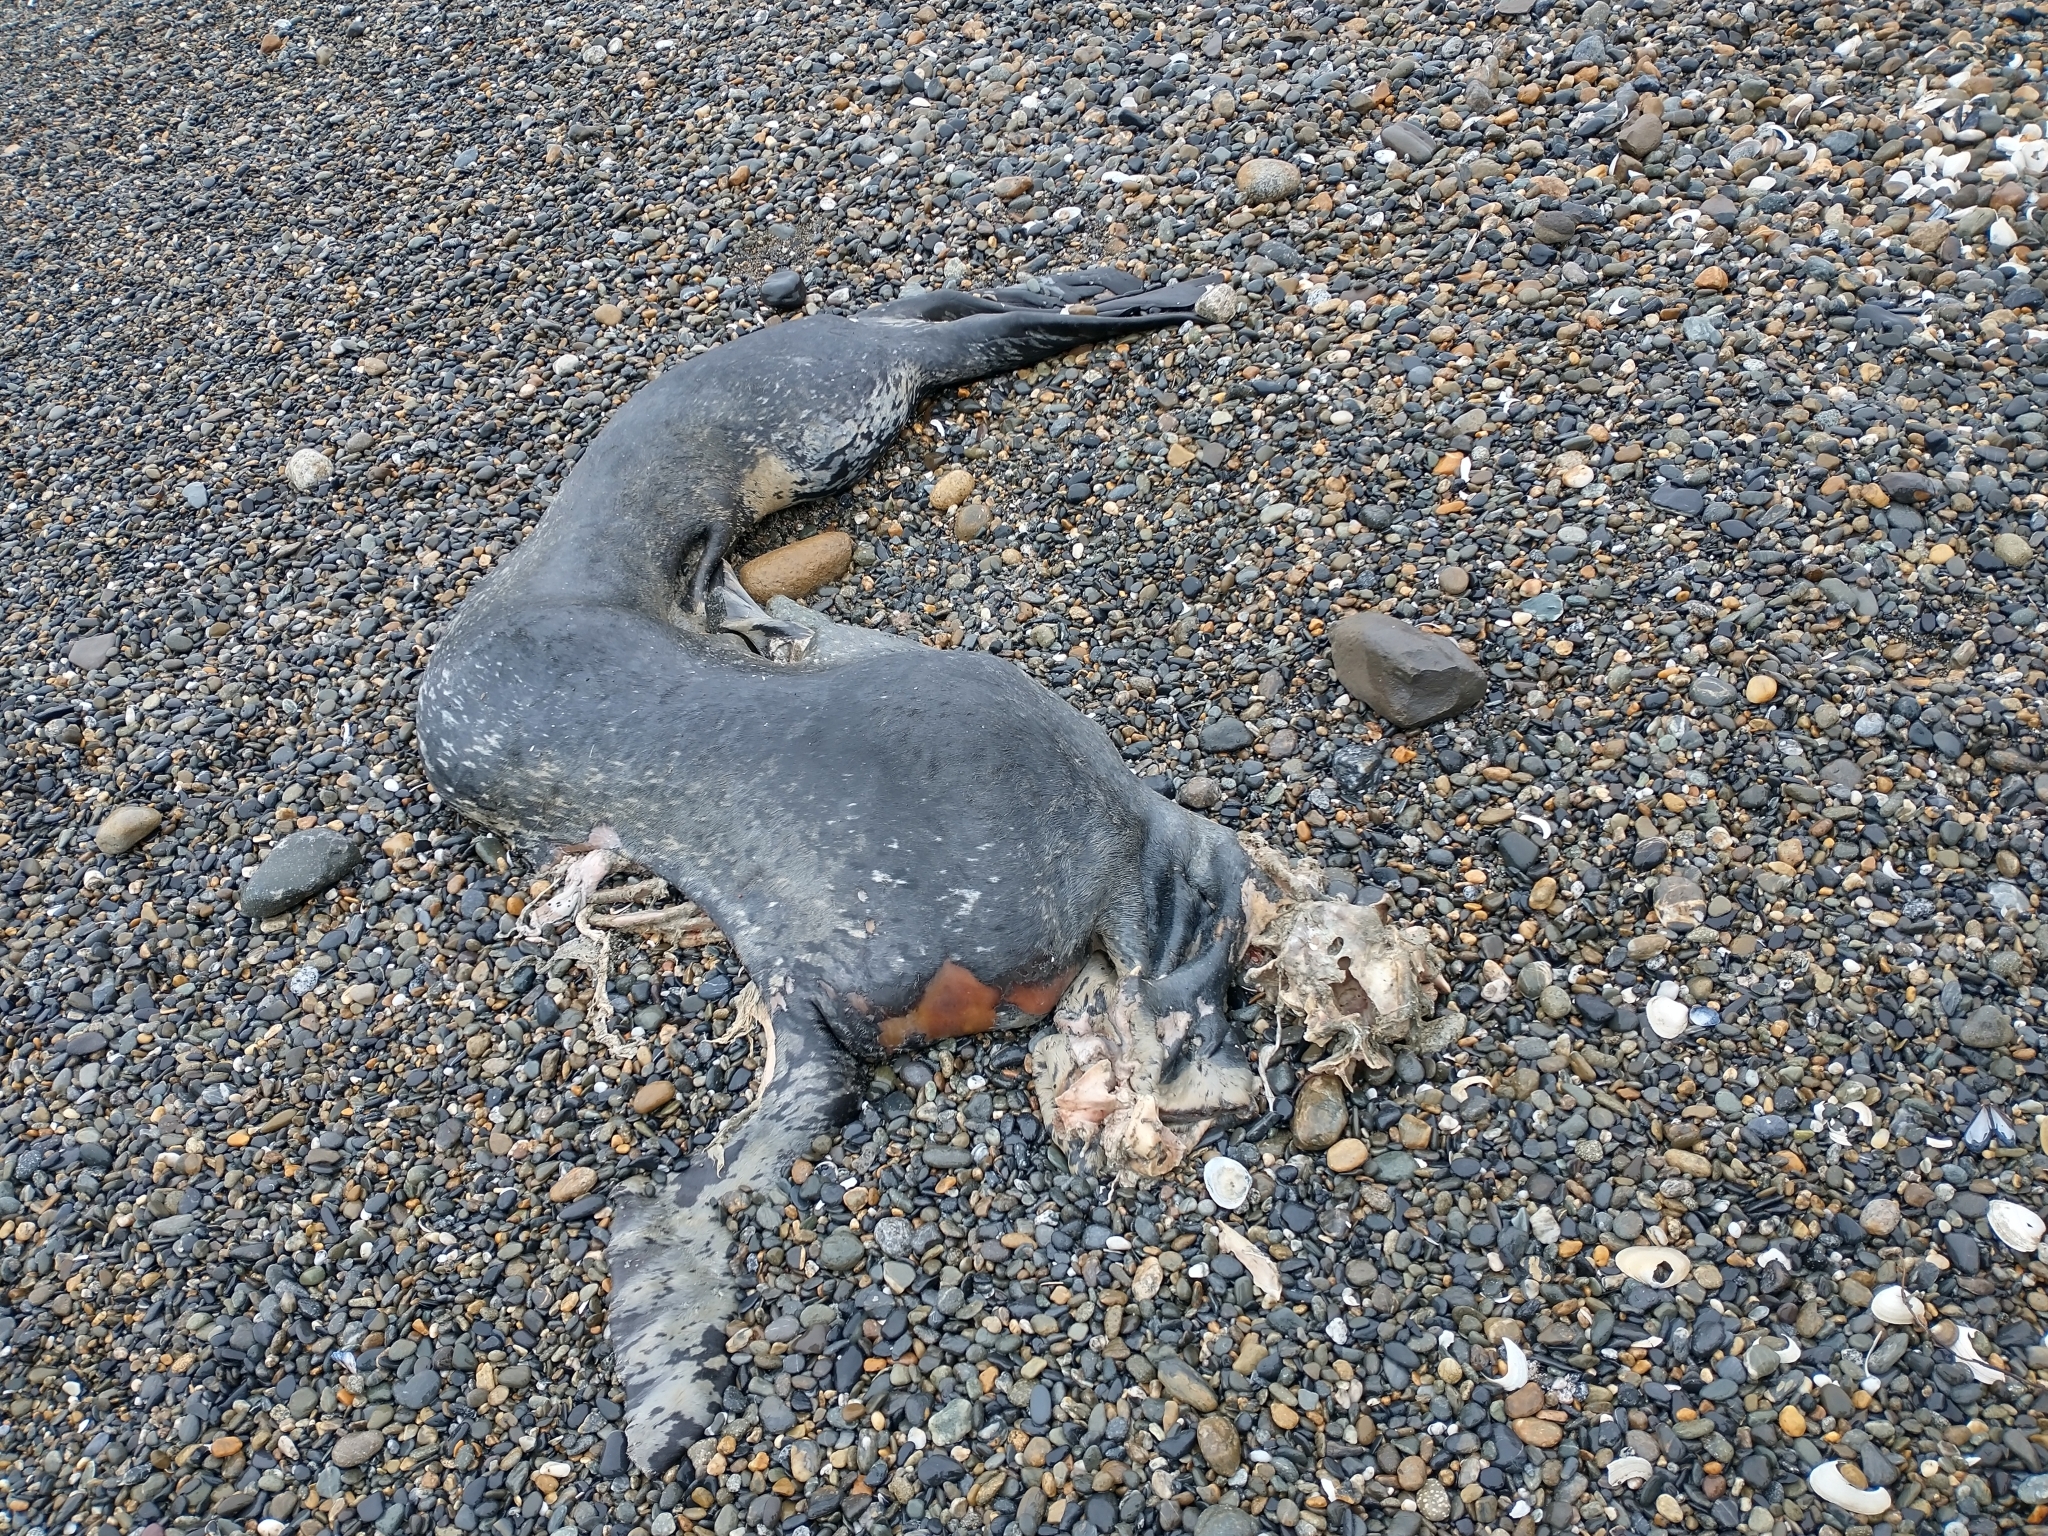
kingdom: Animalia
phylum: Chordata
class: Mammalia
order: Carnivora
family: Phocidae
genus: Hydrurga
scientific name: Hydrurga leptonyx
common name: Leopard seal
